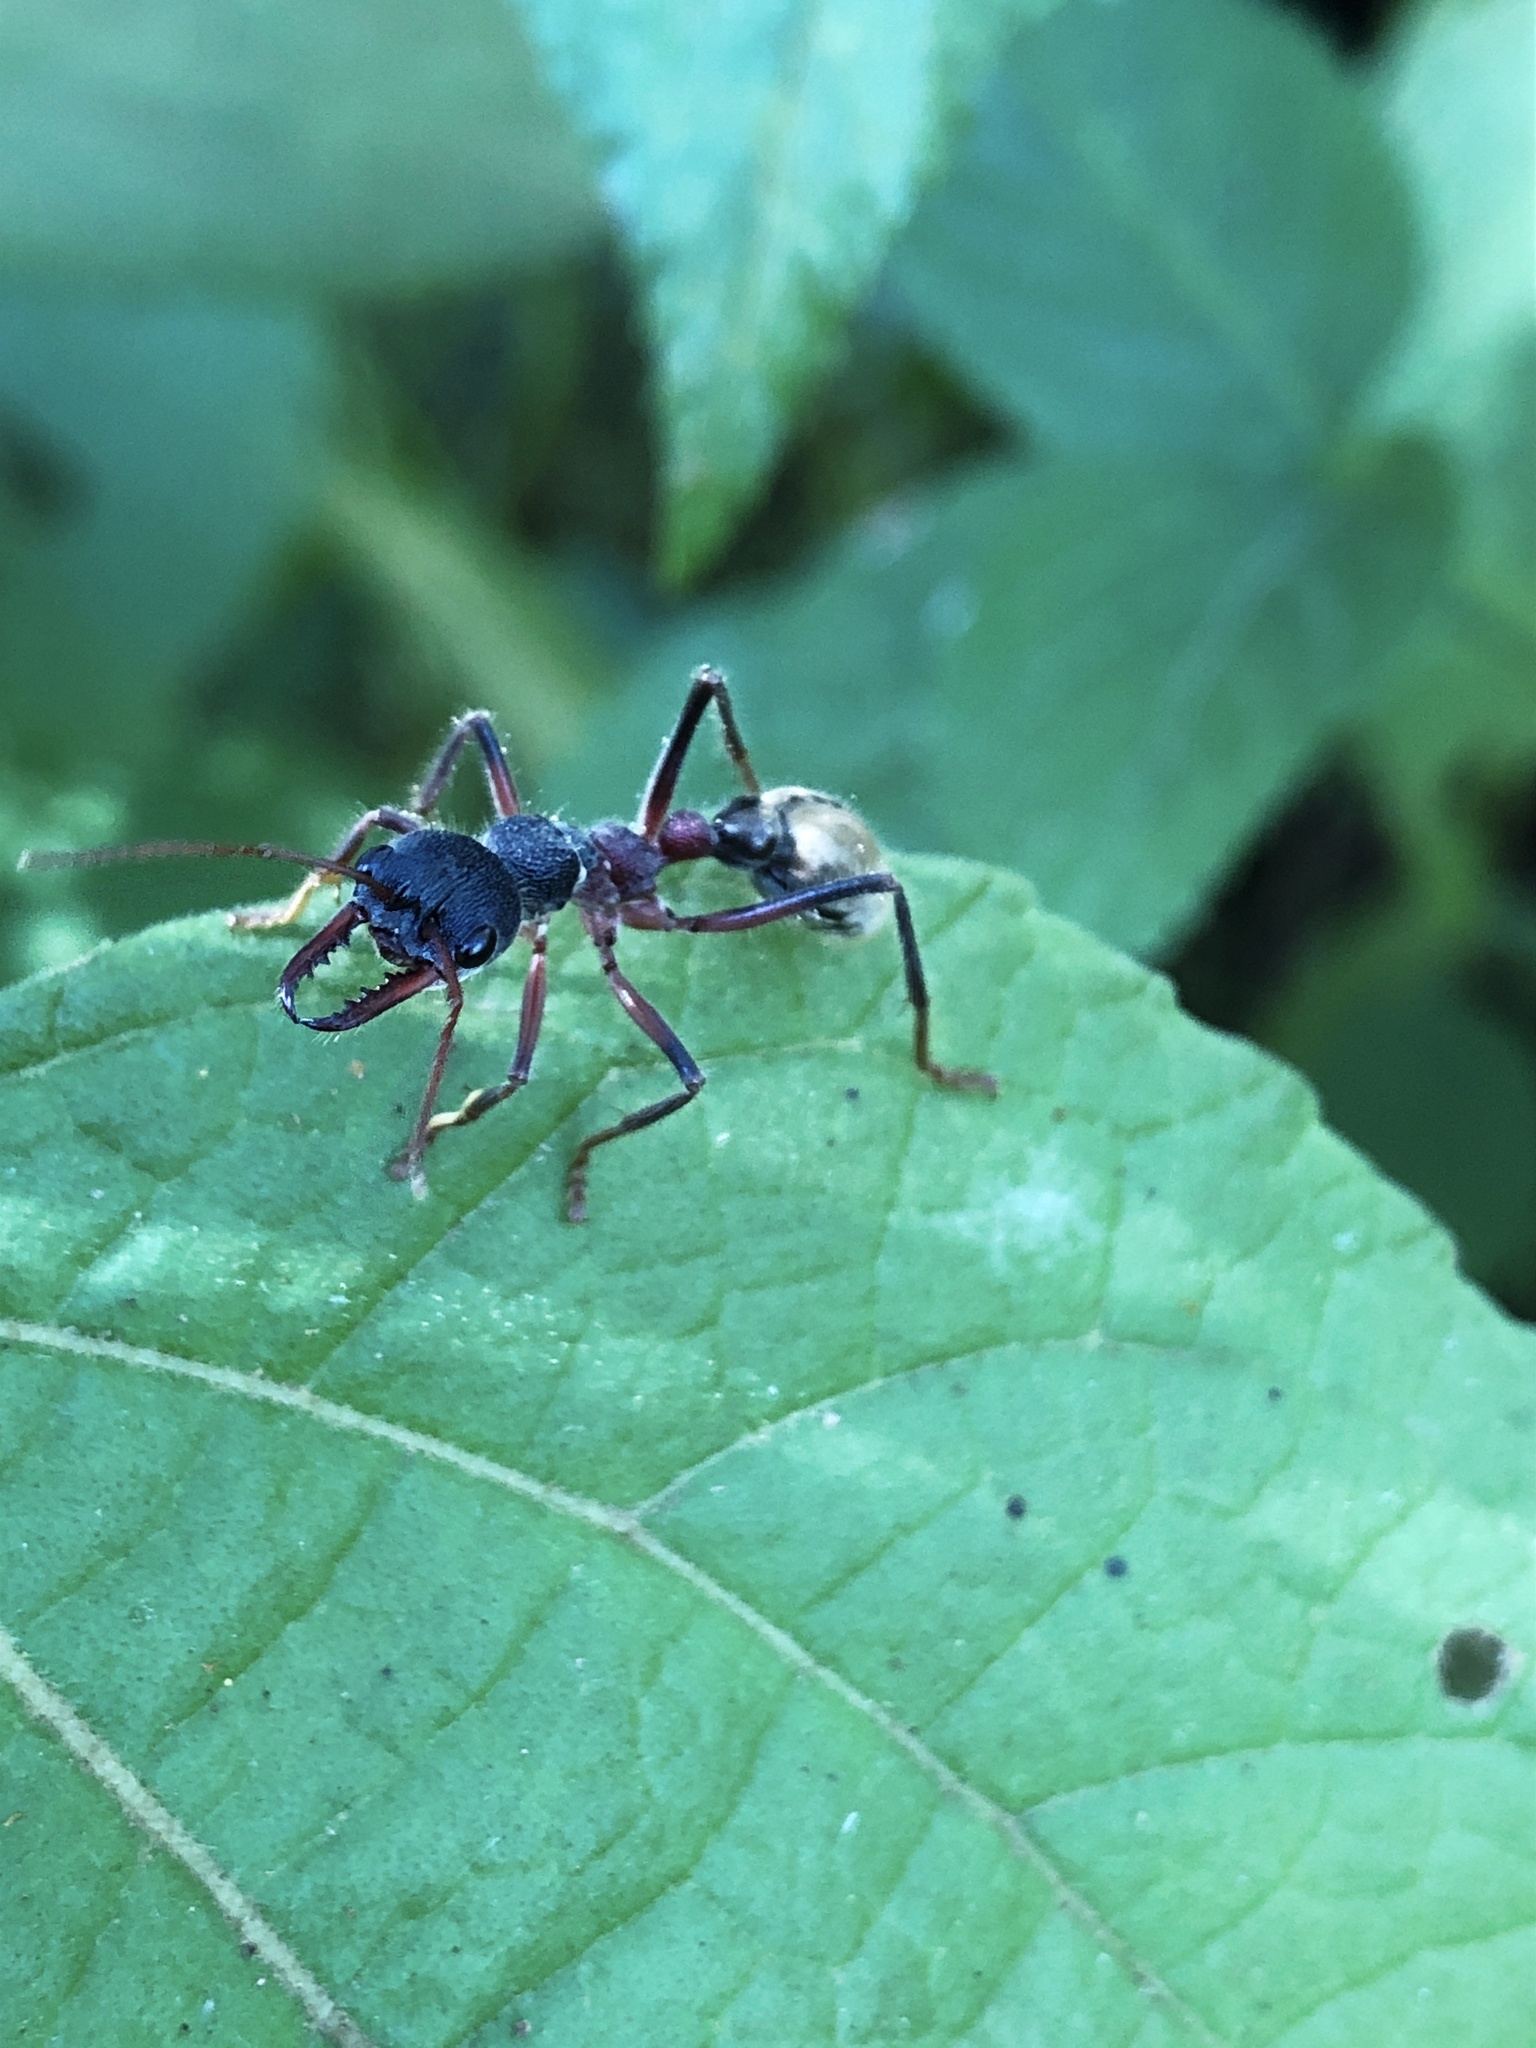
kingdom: Animalia
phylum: Arthropoda
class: Insecta
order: Hymenoptera
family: Formicidae
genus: Myrmecia
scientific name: Myrmecia auriventris
